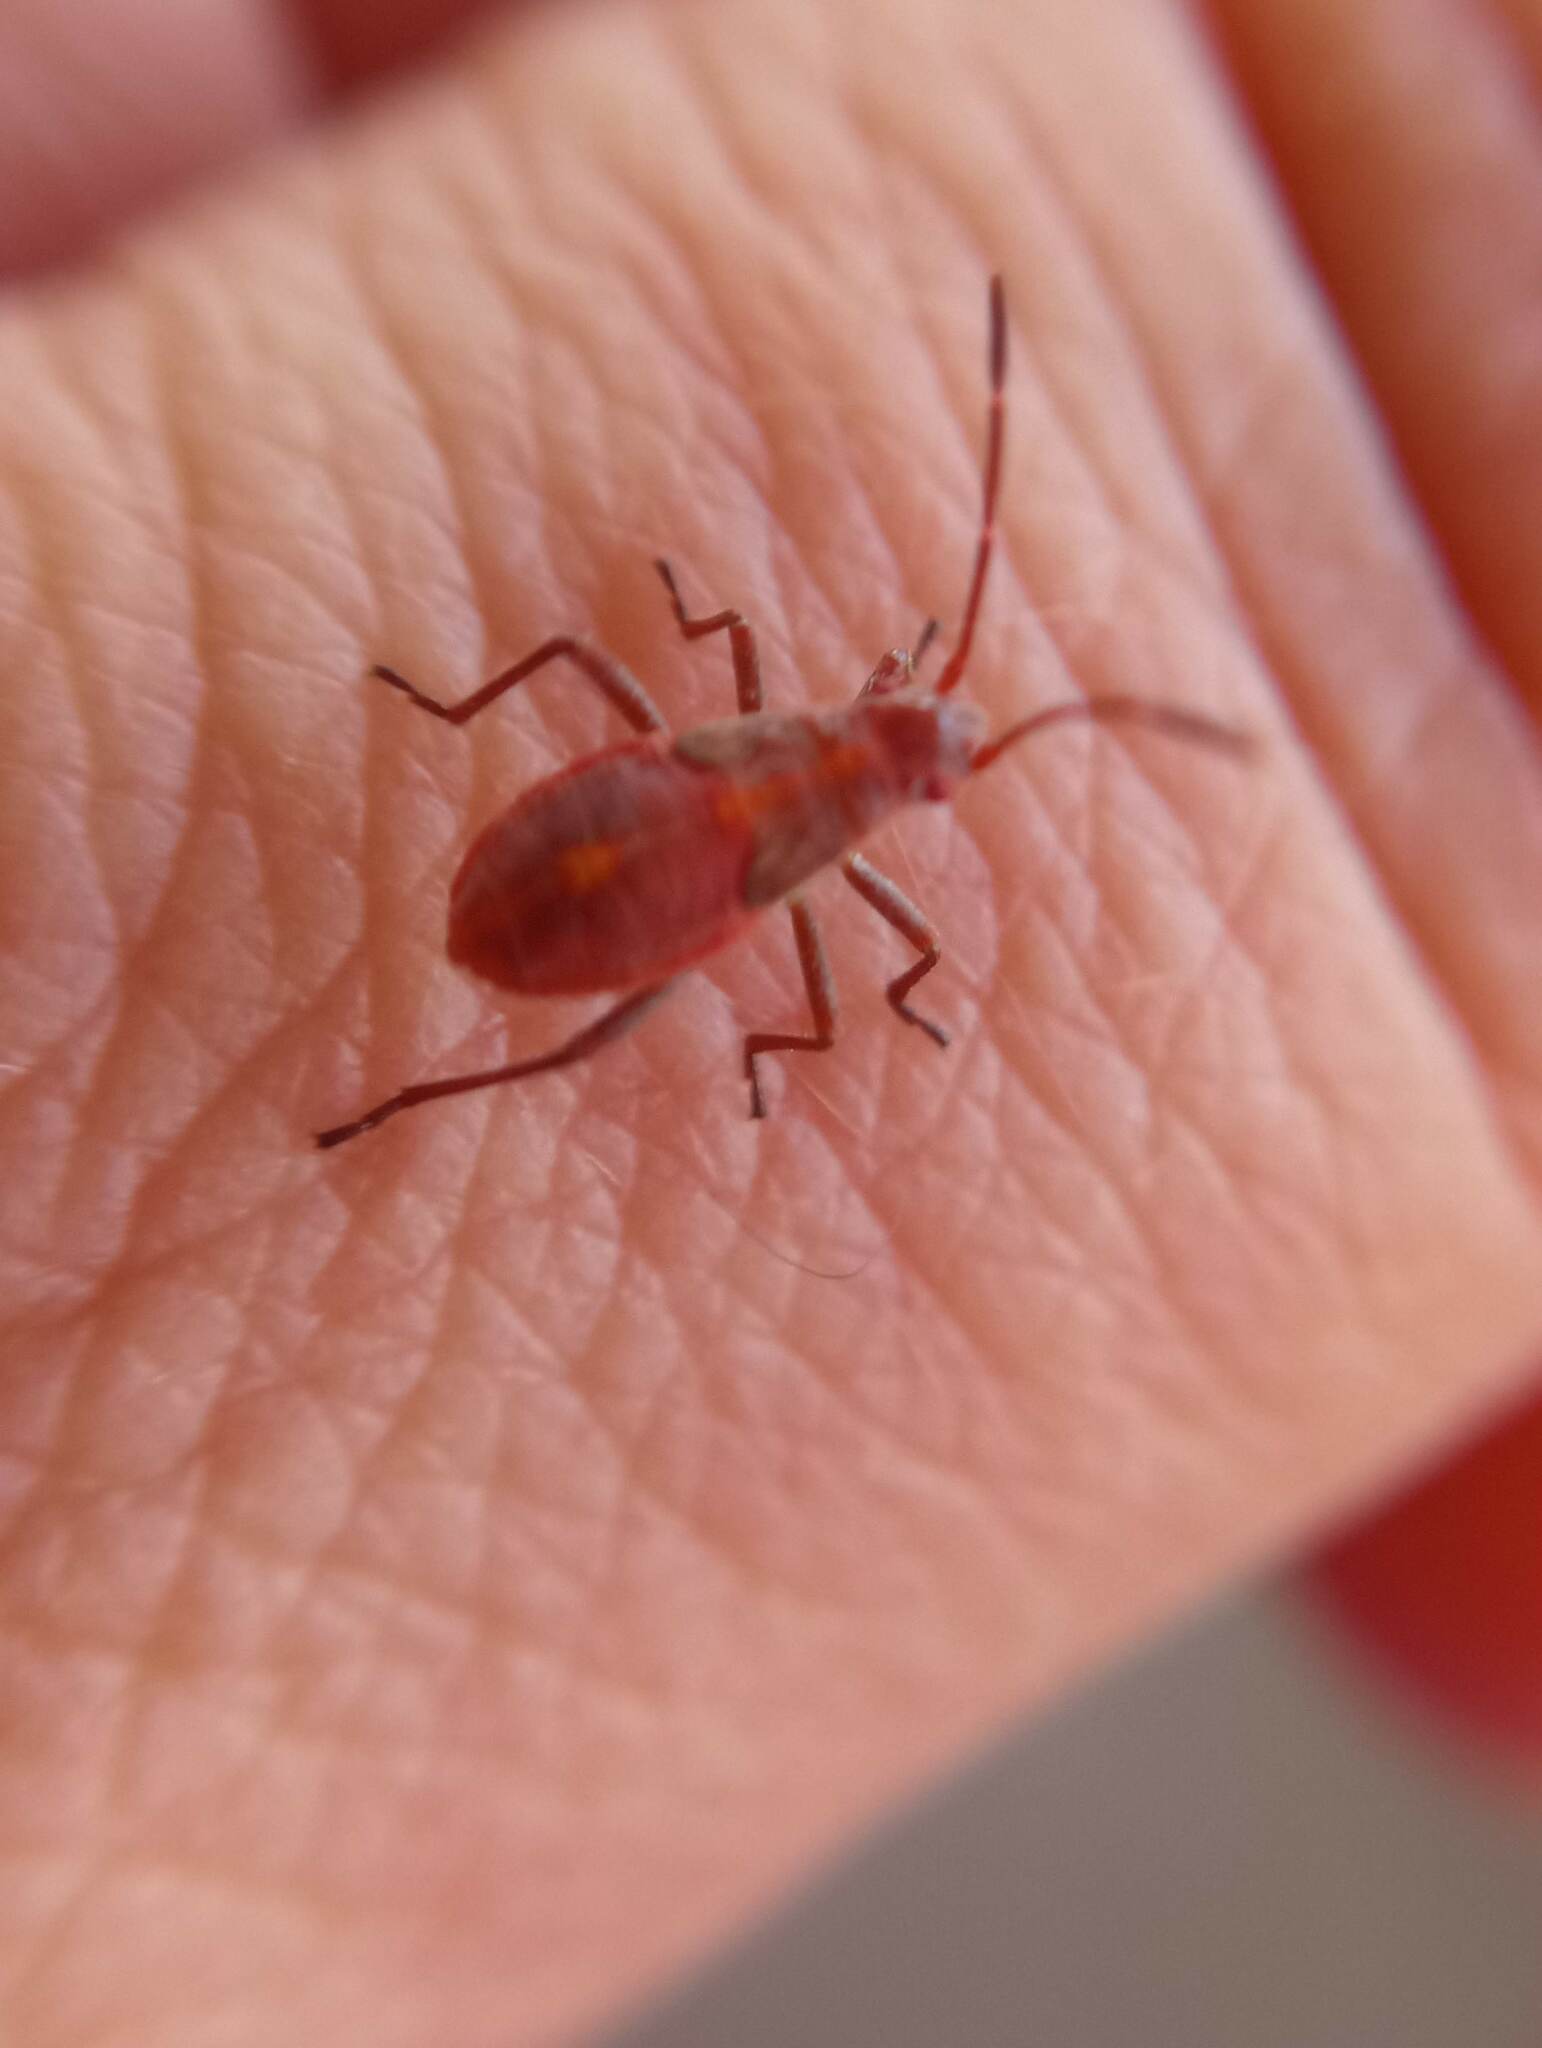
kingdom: Animalia
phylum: Arthropoda
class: Insecta
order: Hemiptera
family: Rhopalidae
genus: Boisea
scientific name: Boisea rubrolineata
